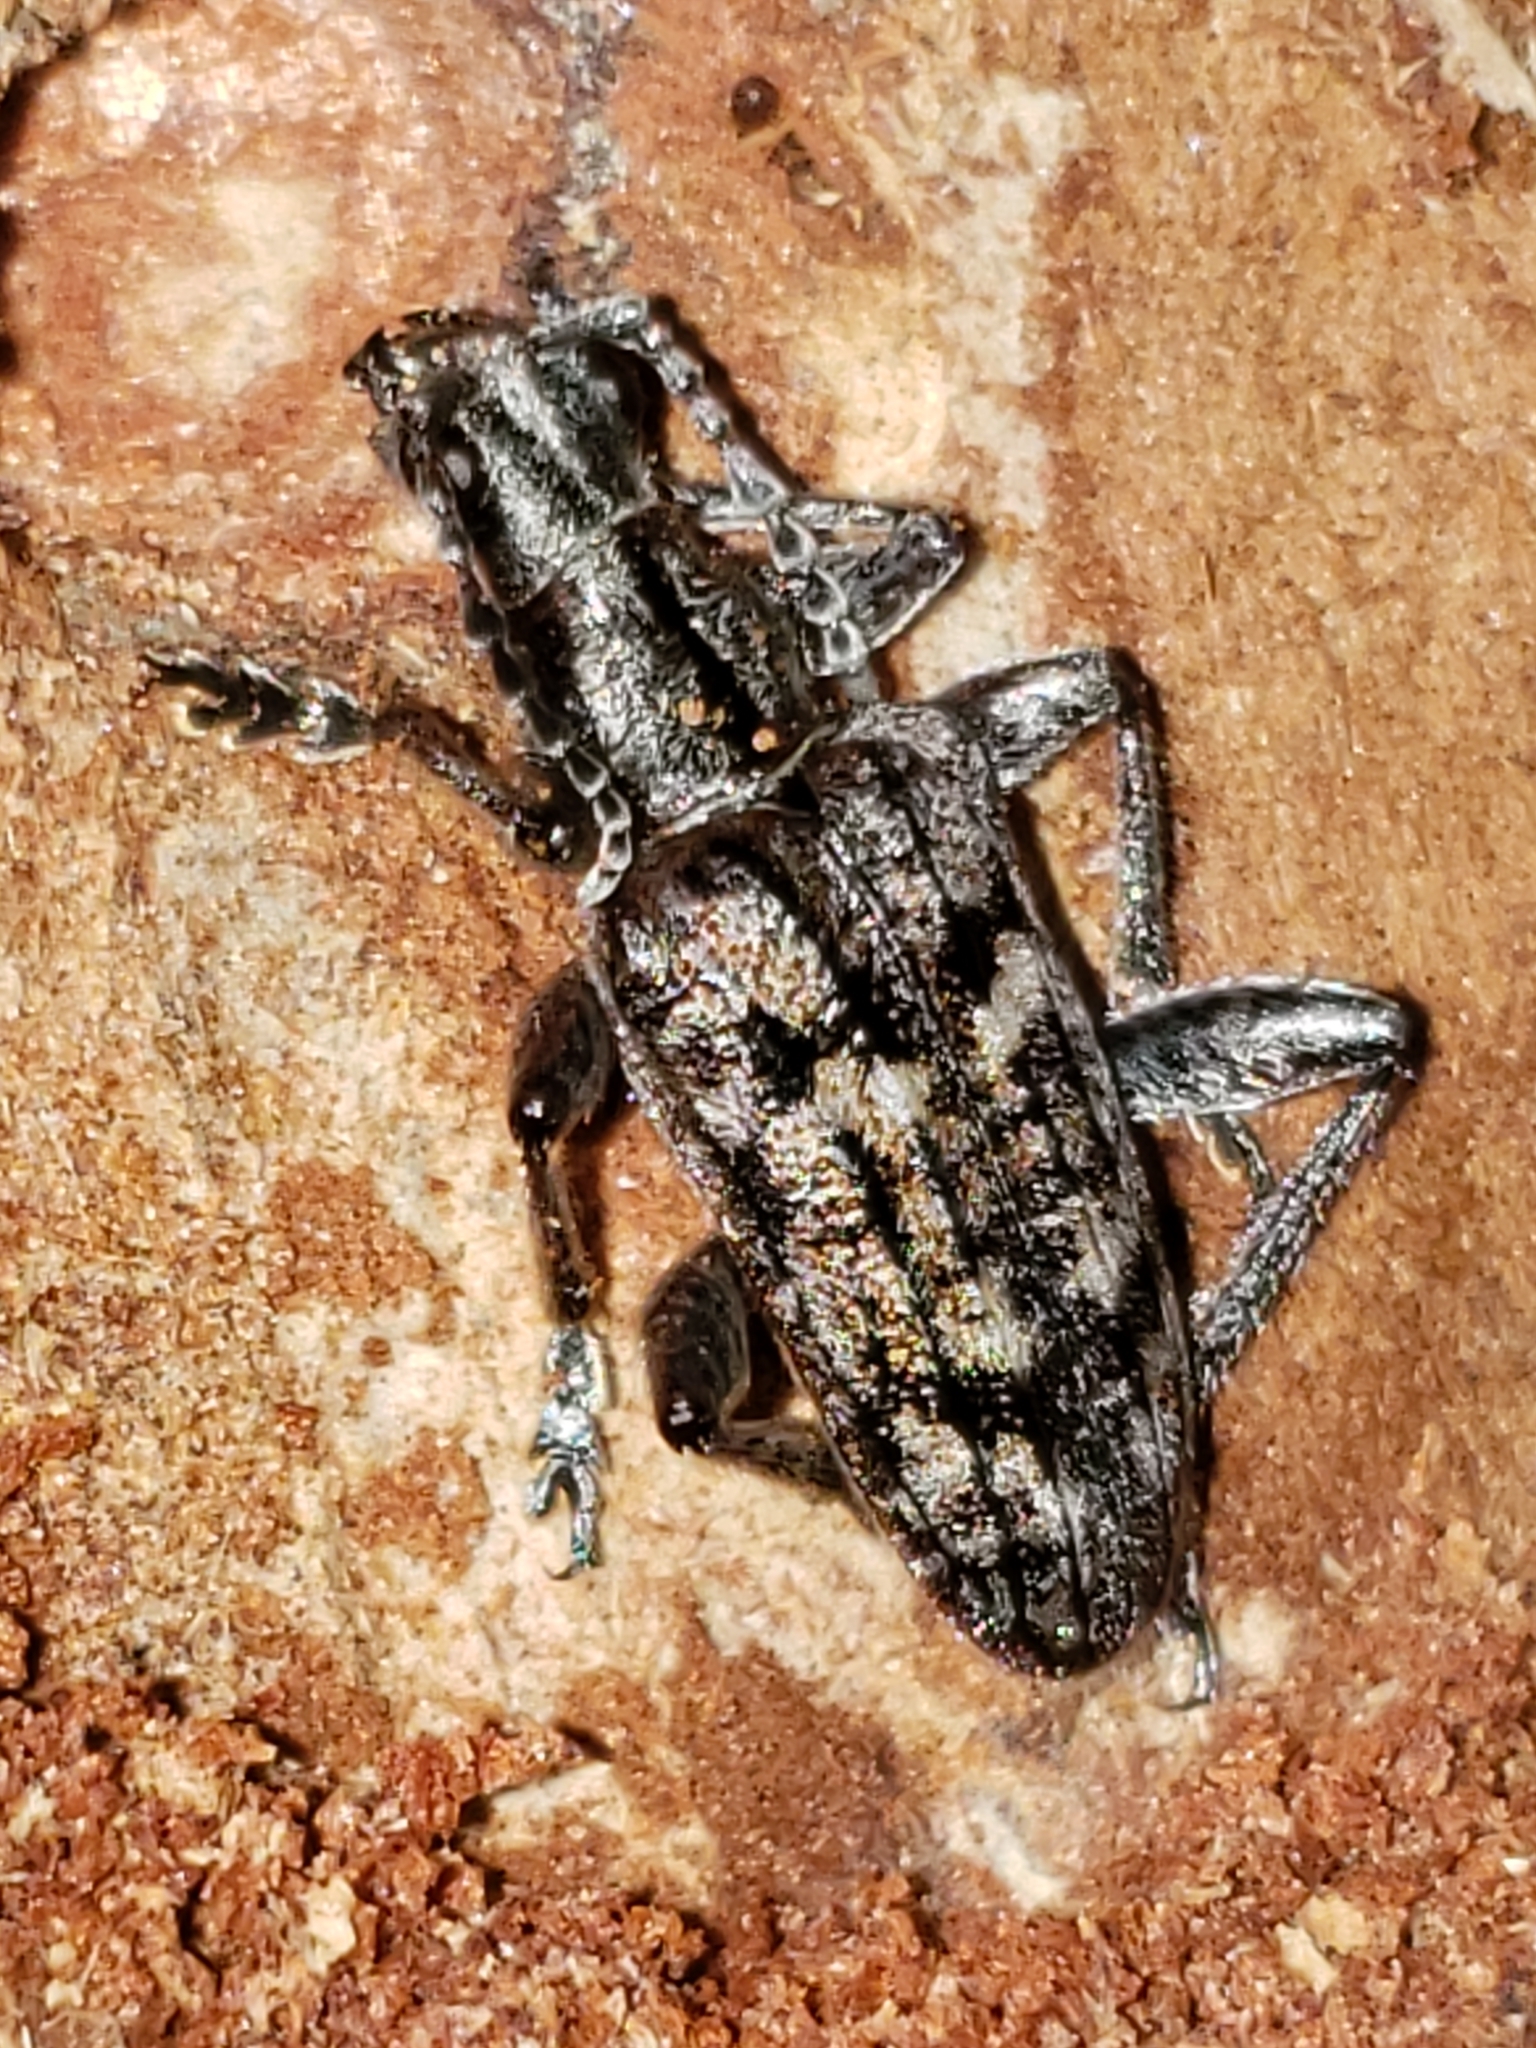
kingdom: Animalia
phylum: Arthropoda
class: Insecta
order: Coleoptera
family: Cerambycidae
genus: Rhagium
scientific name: Rhagium inquisitor
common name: Ribbed pine borer
